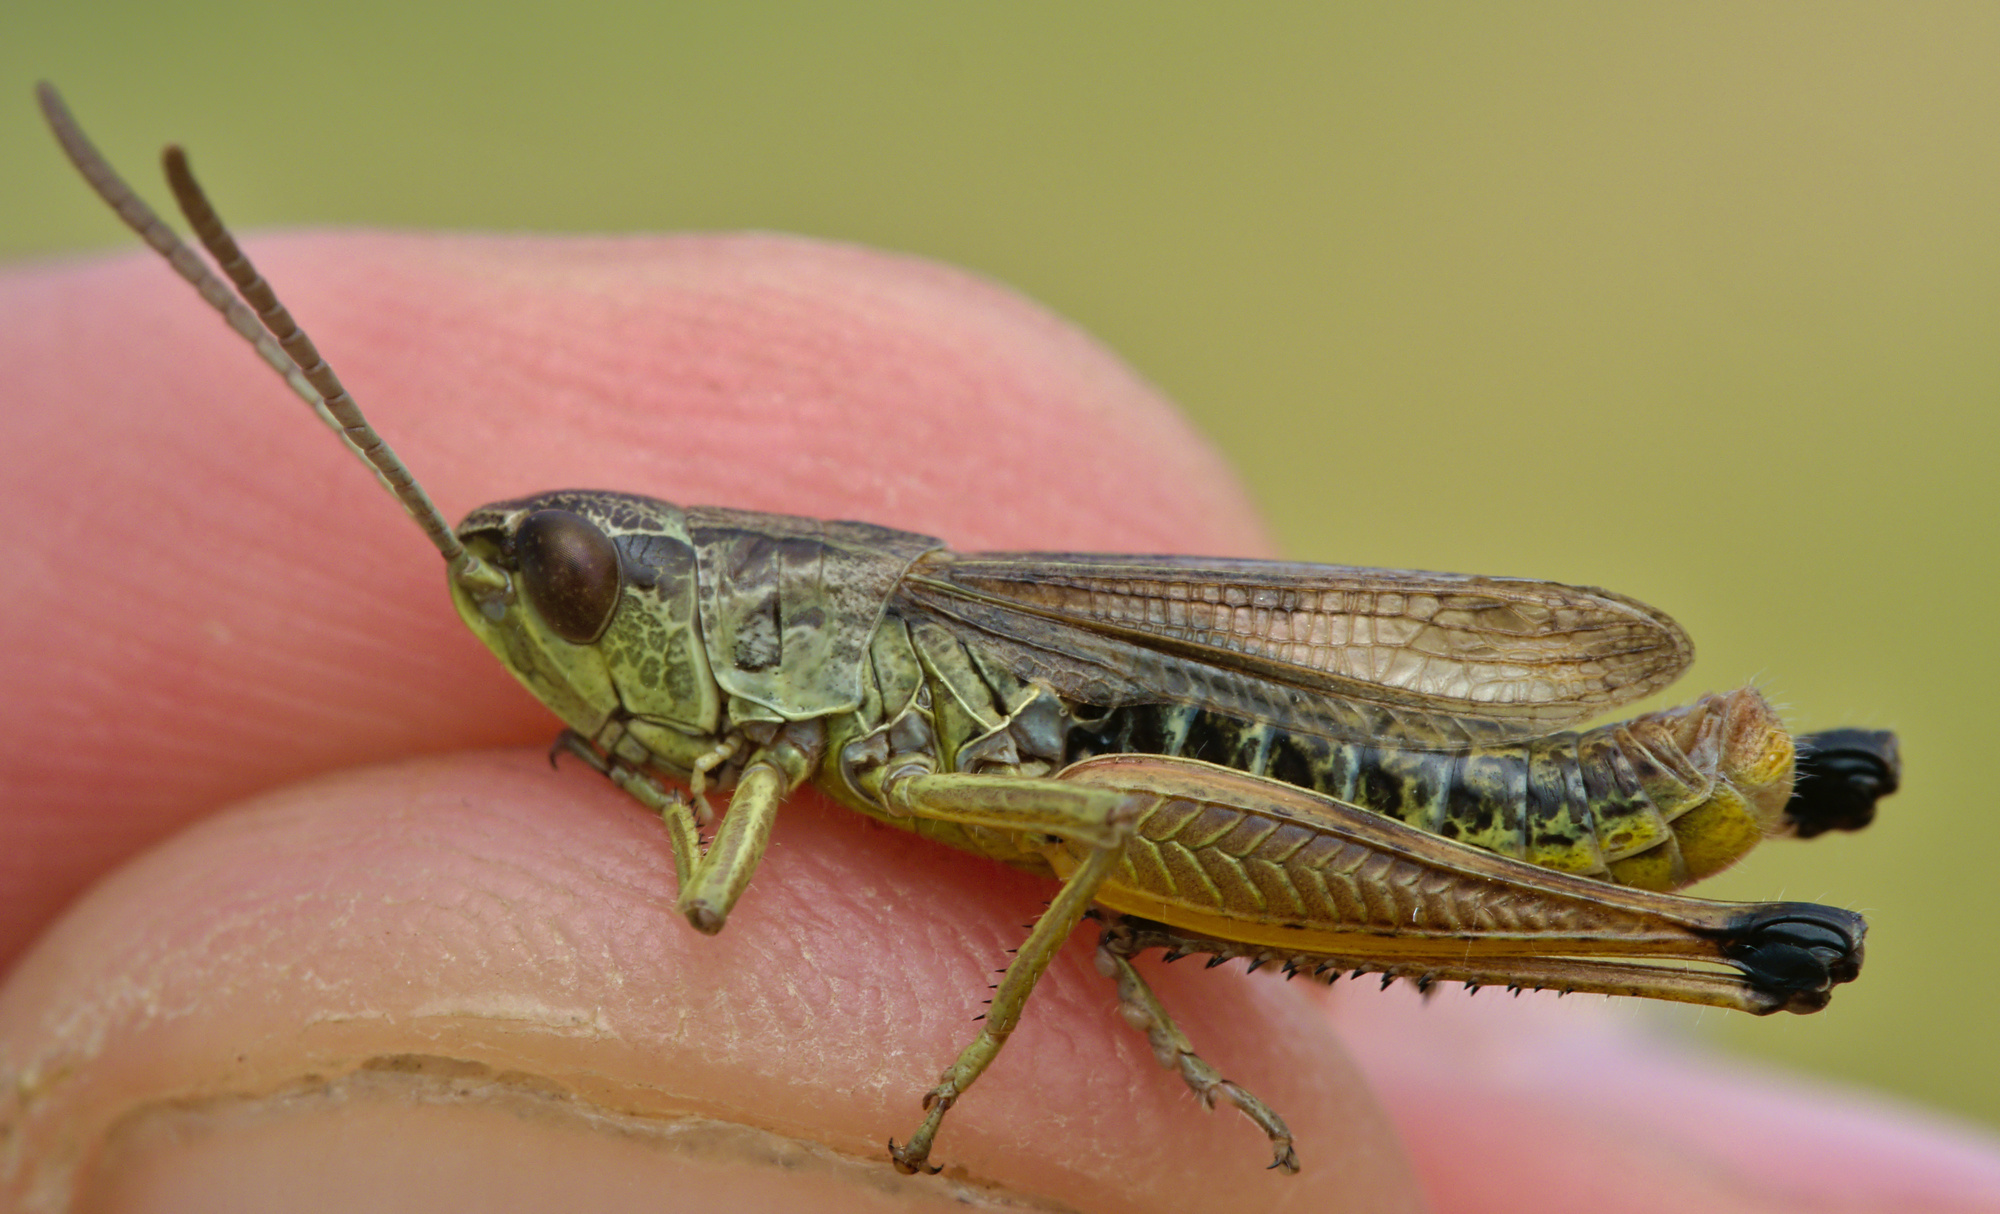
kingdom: Animalia
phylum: Arthropoda
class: Insecta
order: Orthoptera
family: Acrididae
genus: Pseudochorthippus
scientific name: Pseudochorthippus parallelus
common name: Meadow grasshopper
